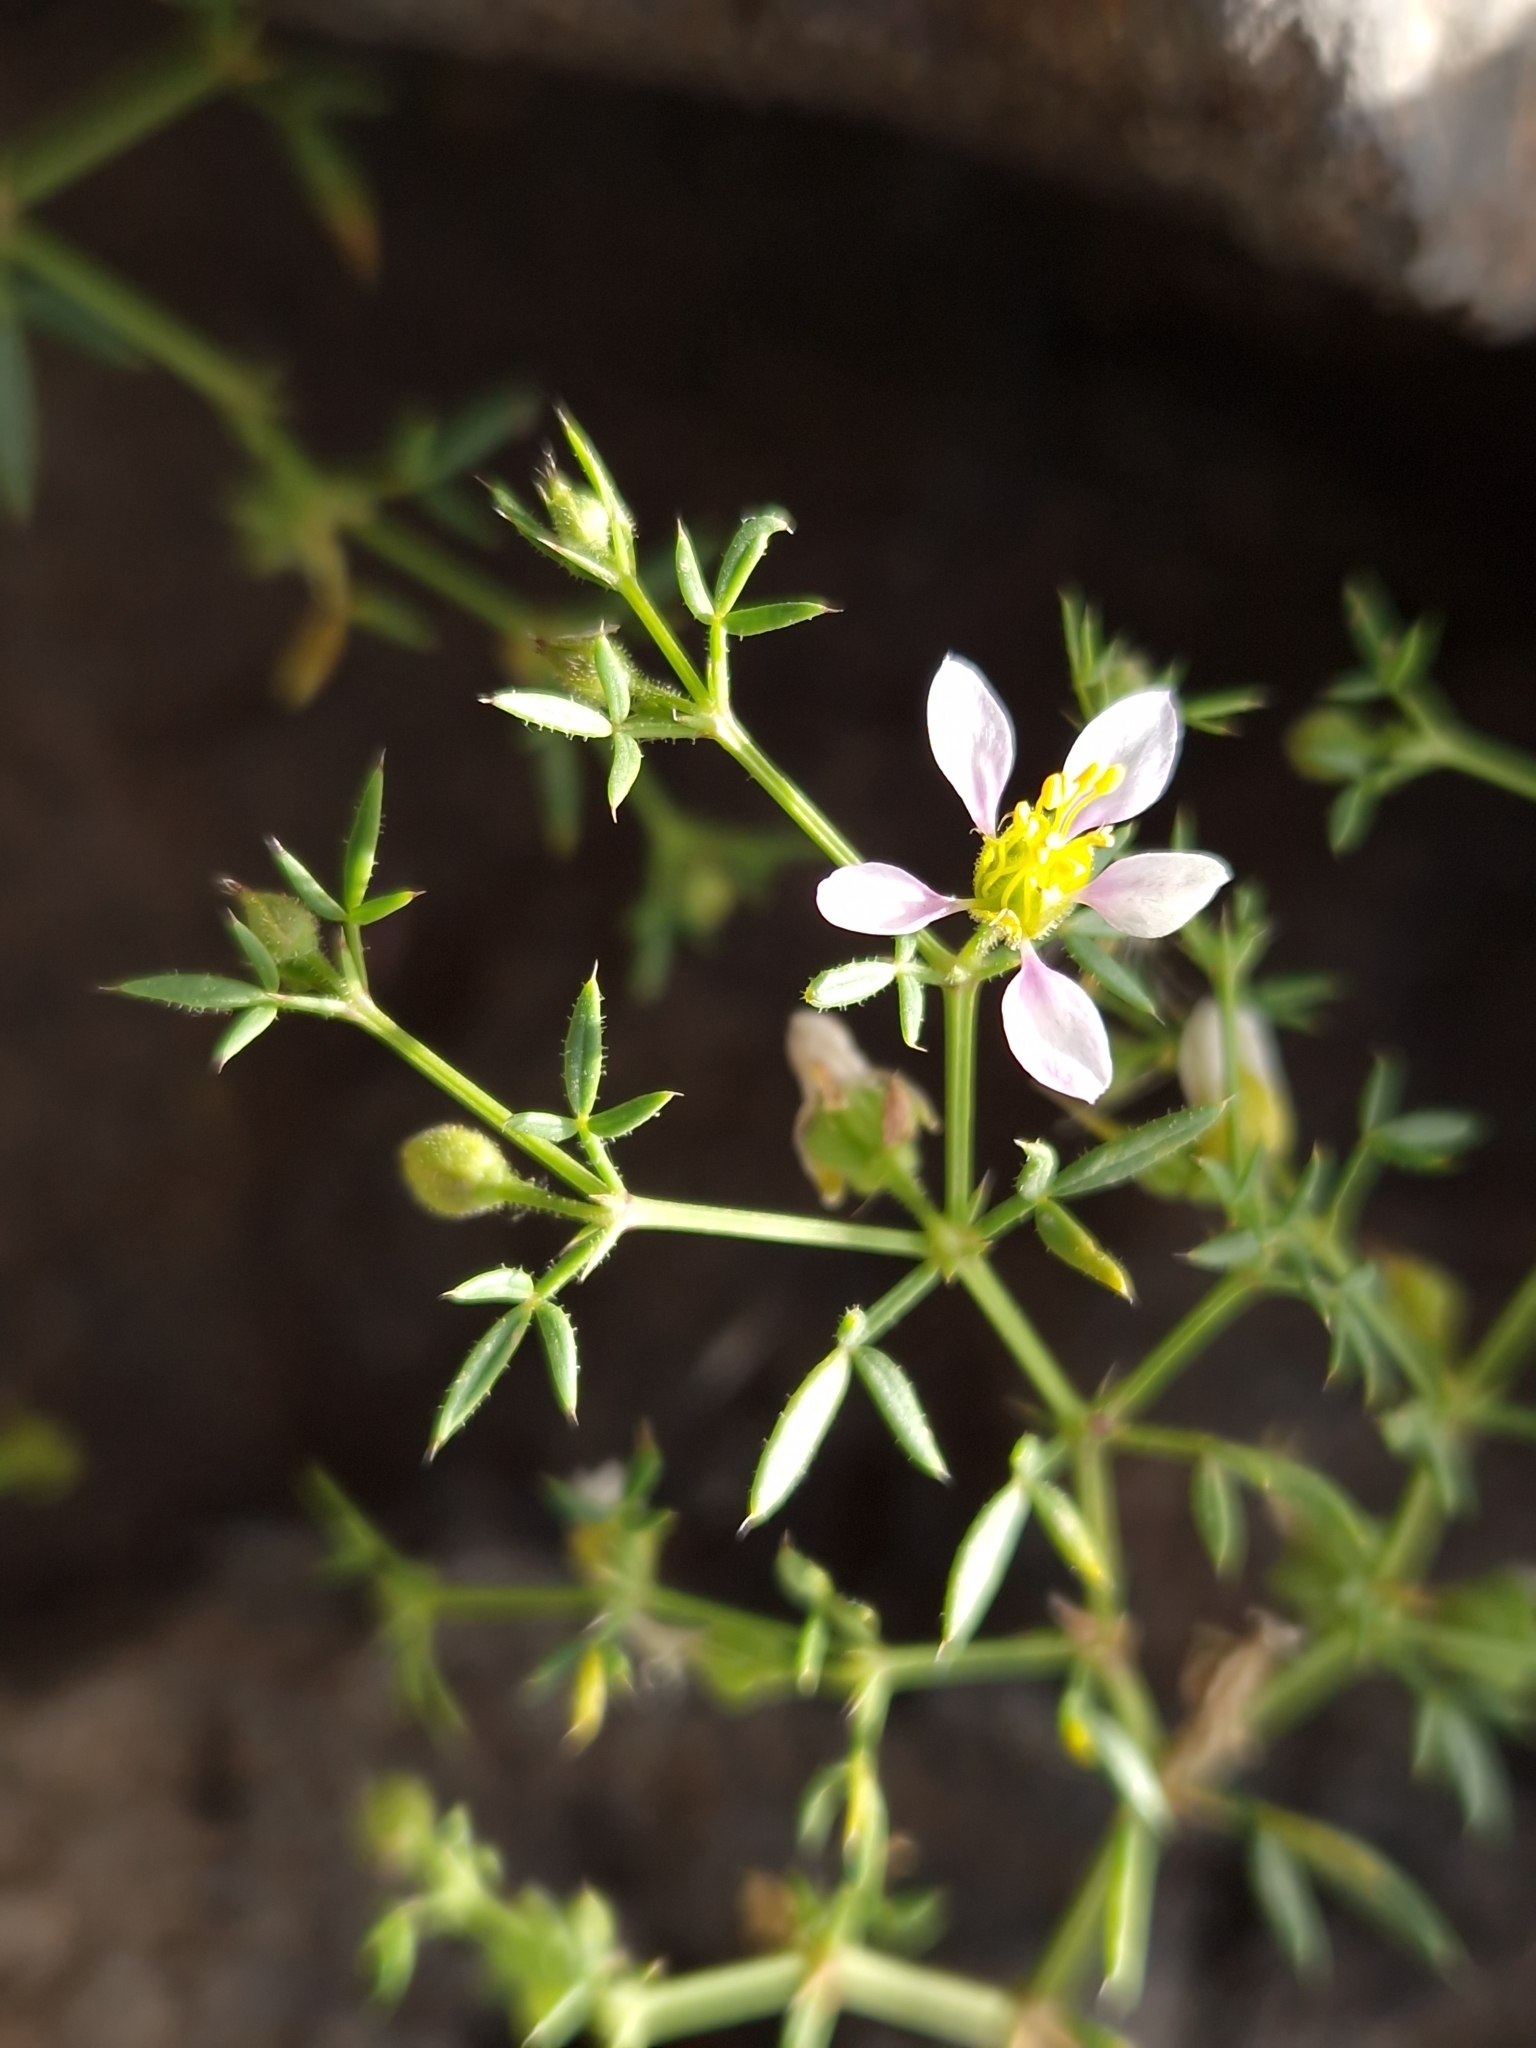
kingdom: Plantae
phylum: Tracheophyta
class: Magnoliopsida
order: Zygophyllales
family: Zygophyllaceae
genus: Fagonia
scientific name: Fagonia cretica
